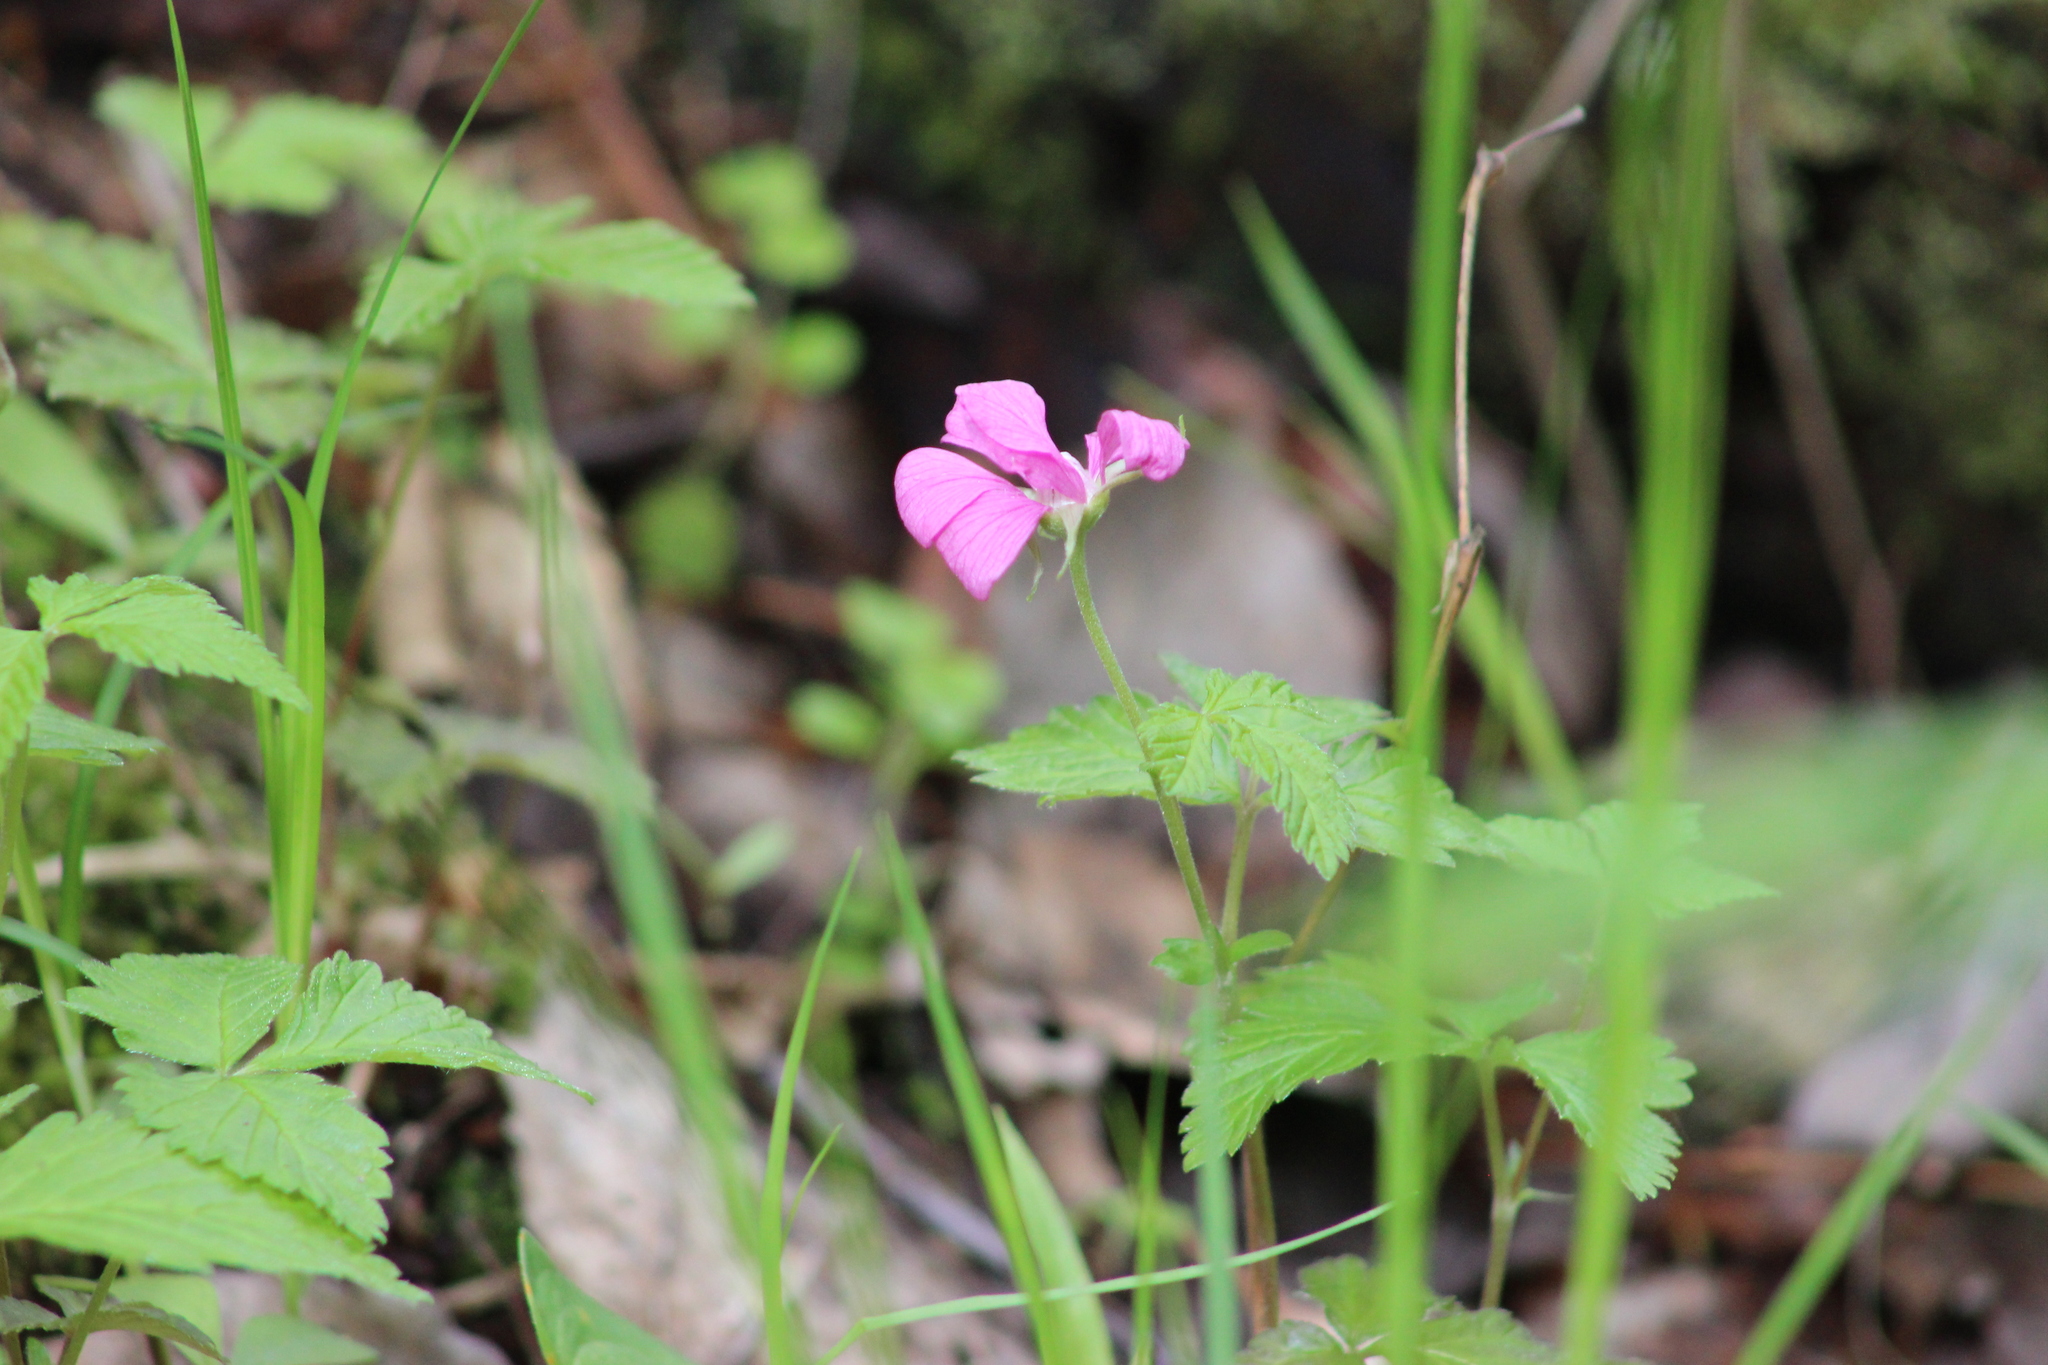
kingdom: Plantae
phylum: Tracheophyta
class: Magnoliopsida
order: Rosales
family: Rosaceae
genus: Rubus
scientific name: Rubus arcticus
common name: Arctic bramble
